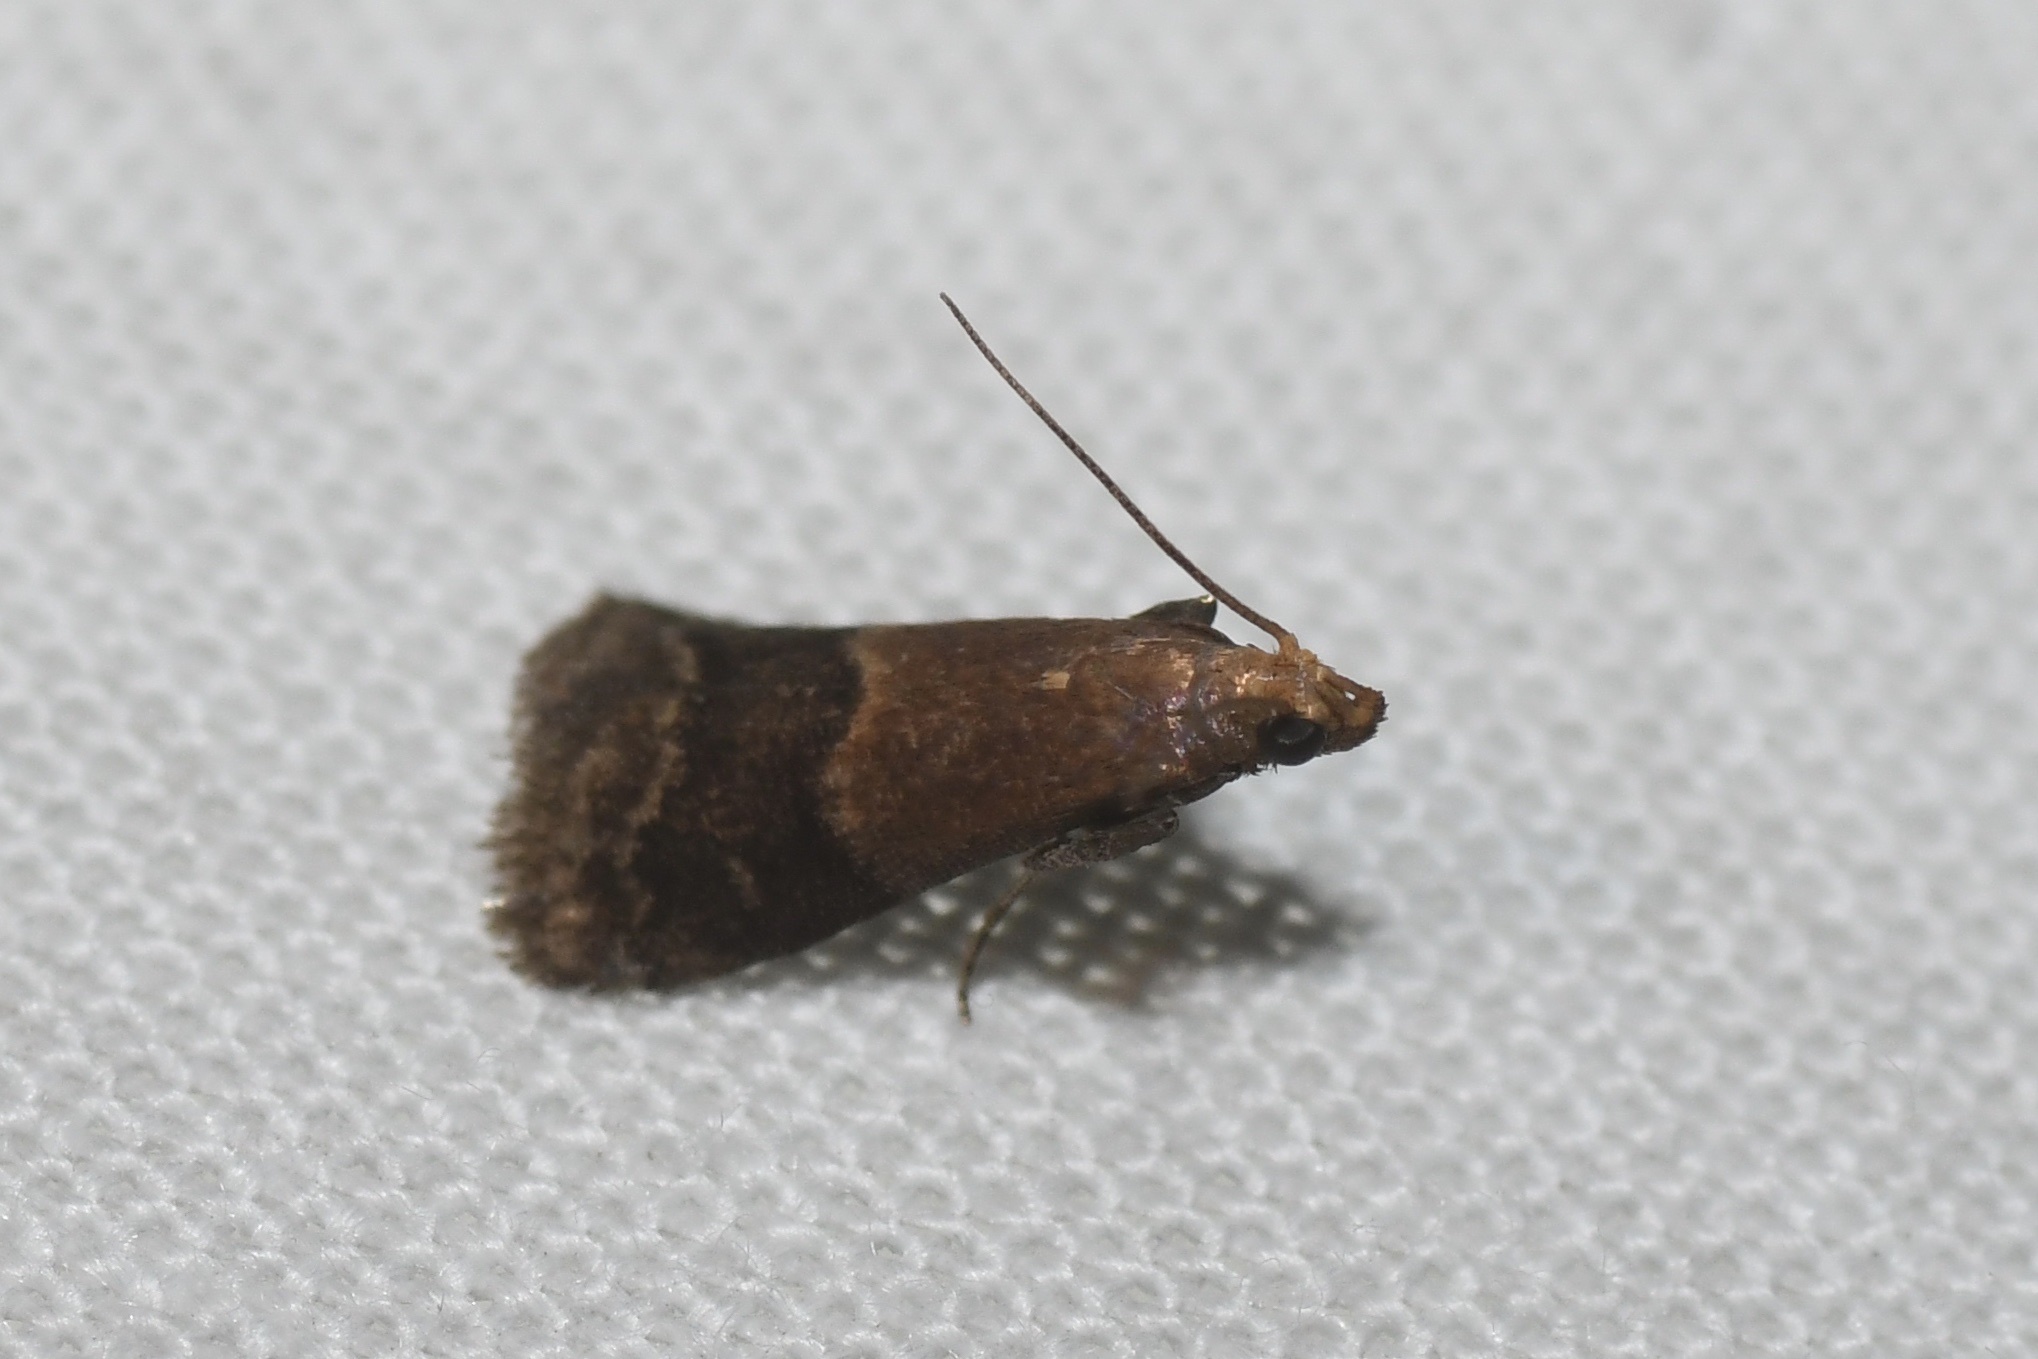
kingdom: Animalia
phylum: Arthropoda
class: Insecta
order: Lepidoptera
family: Pyralidae
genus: Eulogia
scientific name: Eulogia ochrifrontella
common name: Broad-banded eulogia moth
